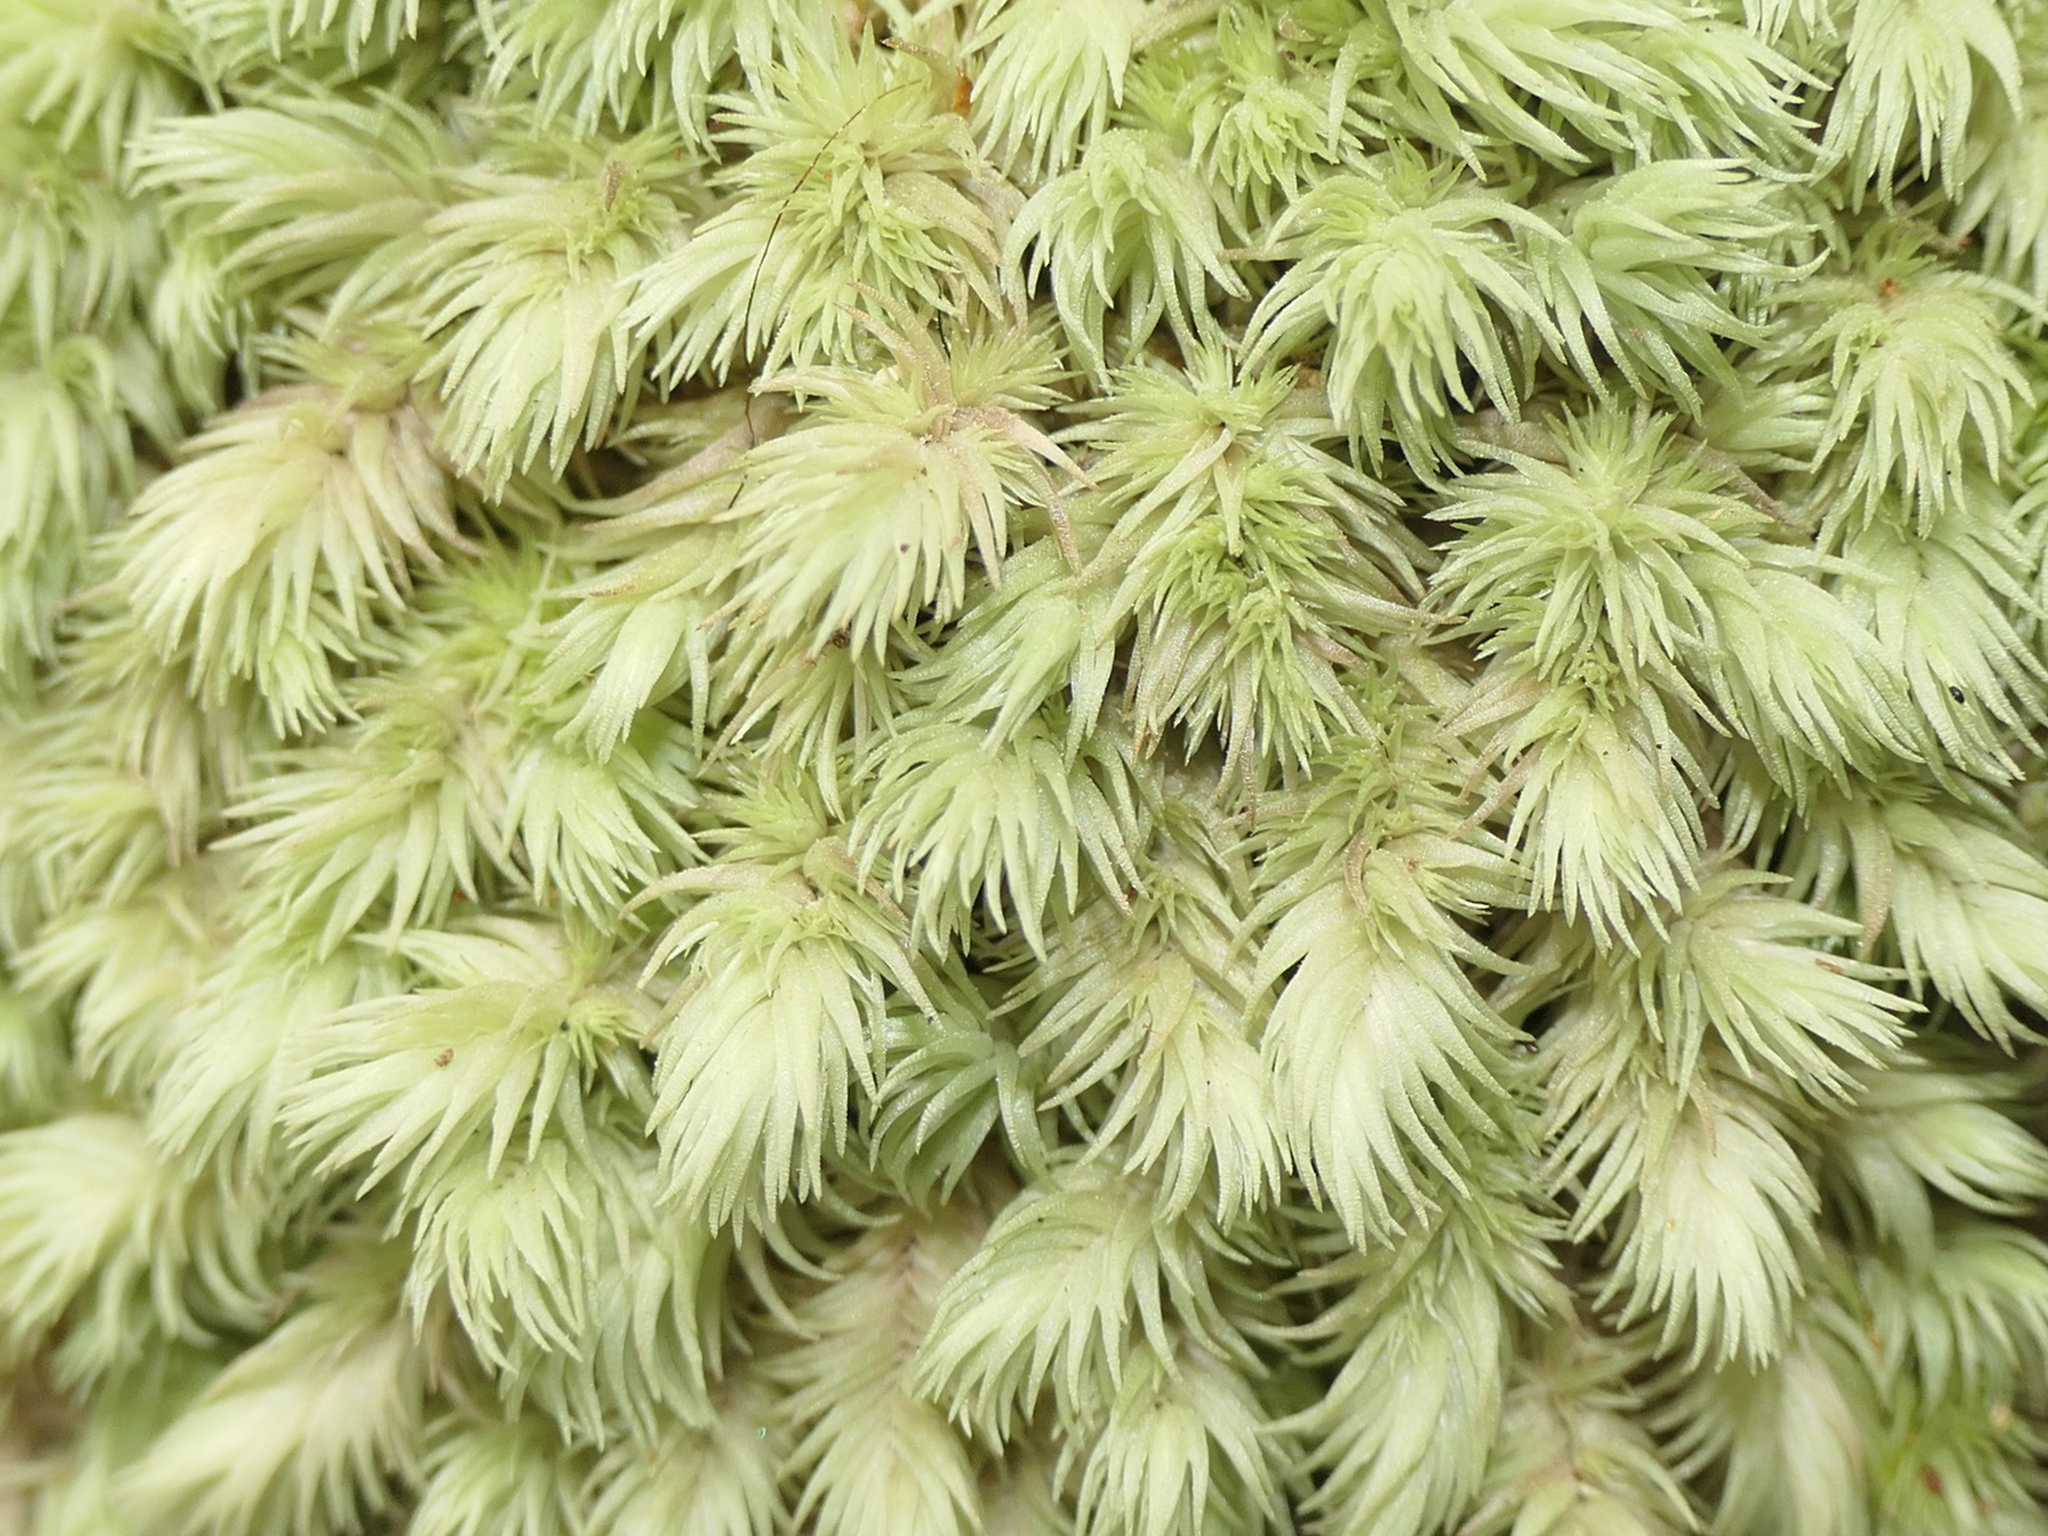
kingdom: Plantae
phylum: Bryophyta
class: Bryopsida
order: Dicranales
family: Leucobryaceae
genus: Leucobryum
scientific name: Leucobryum javense
